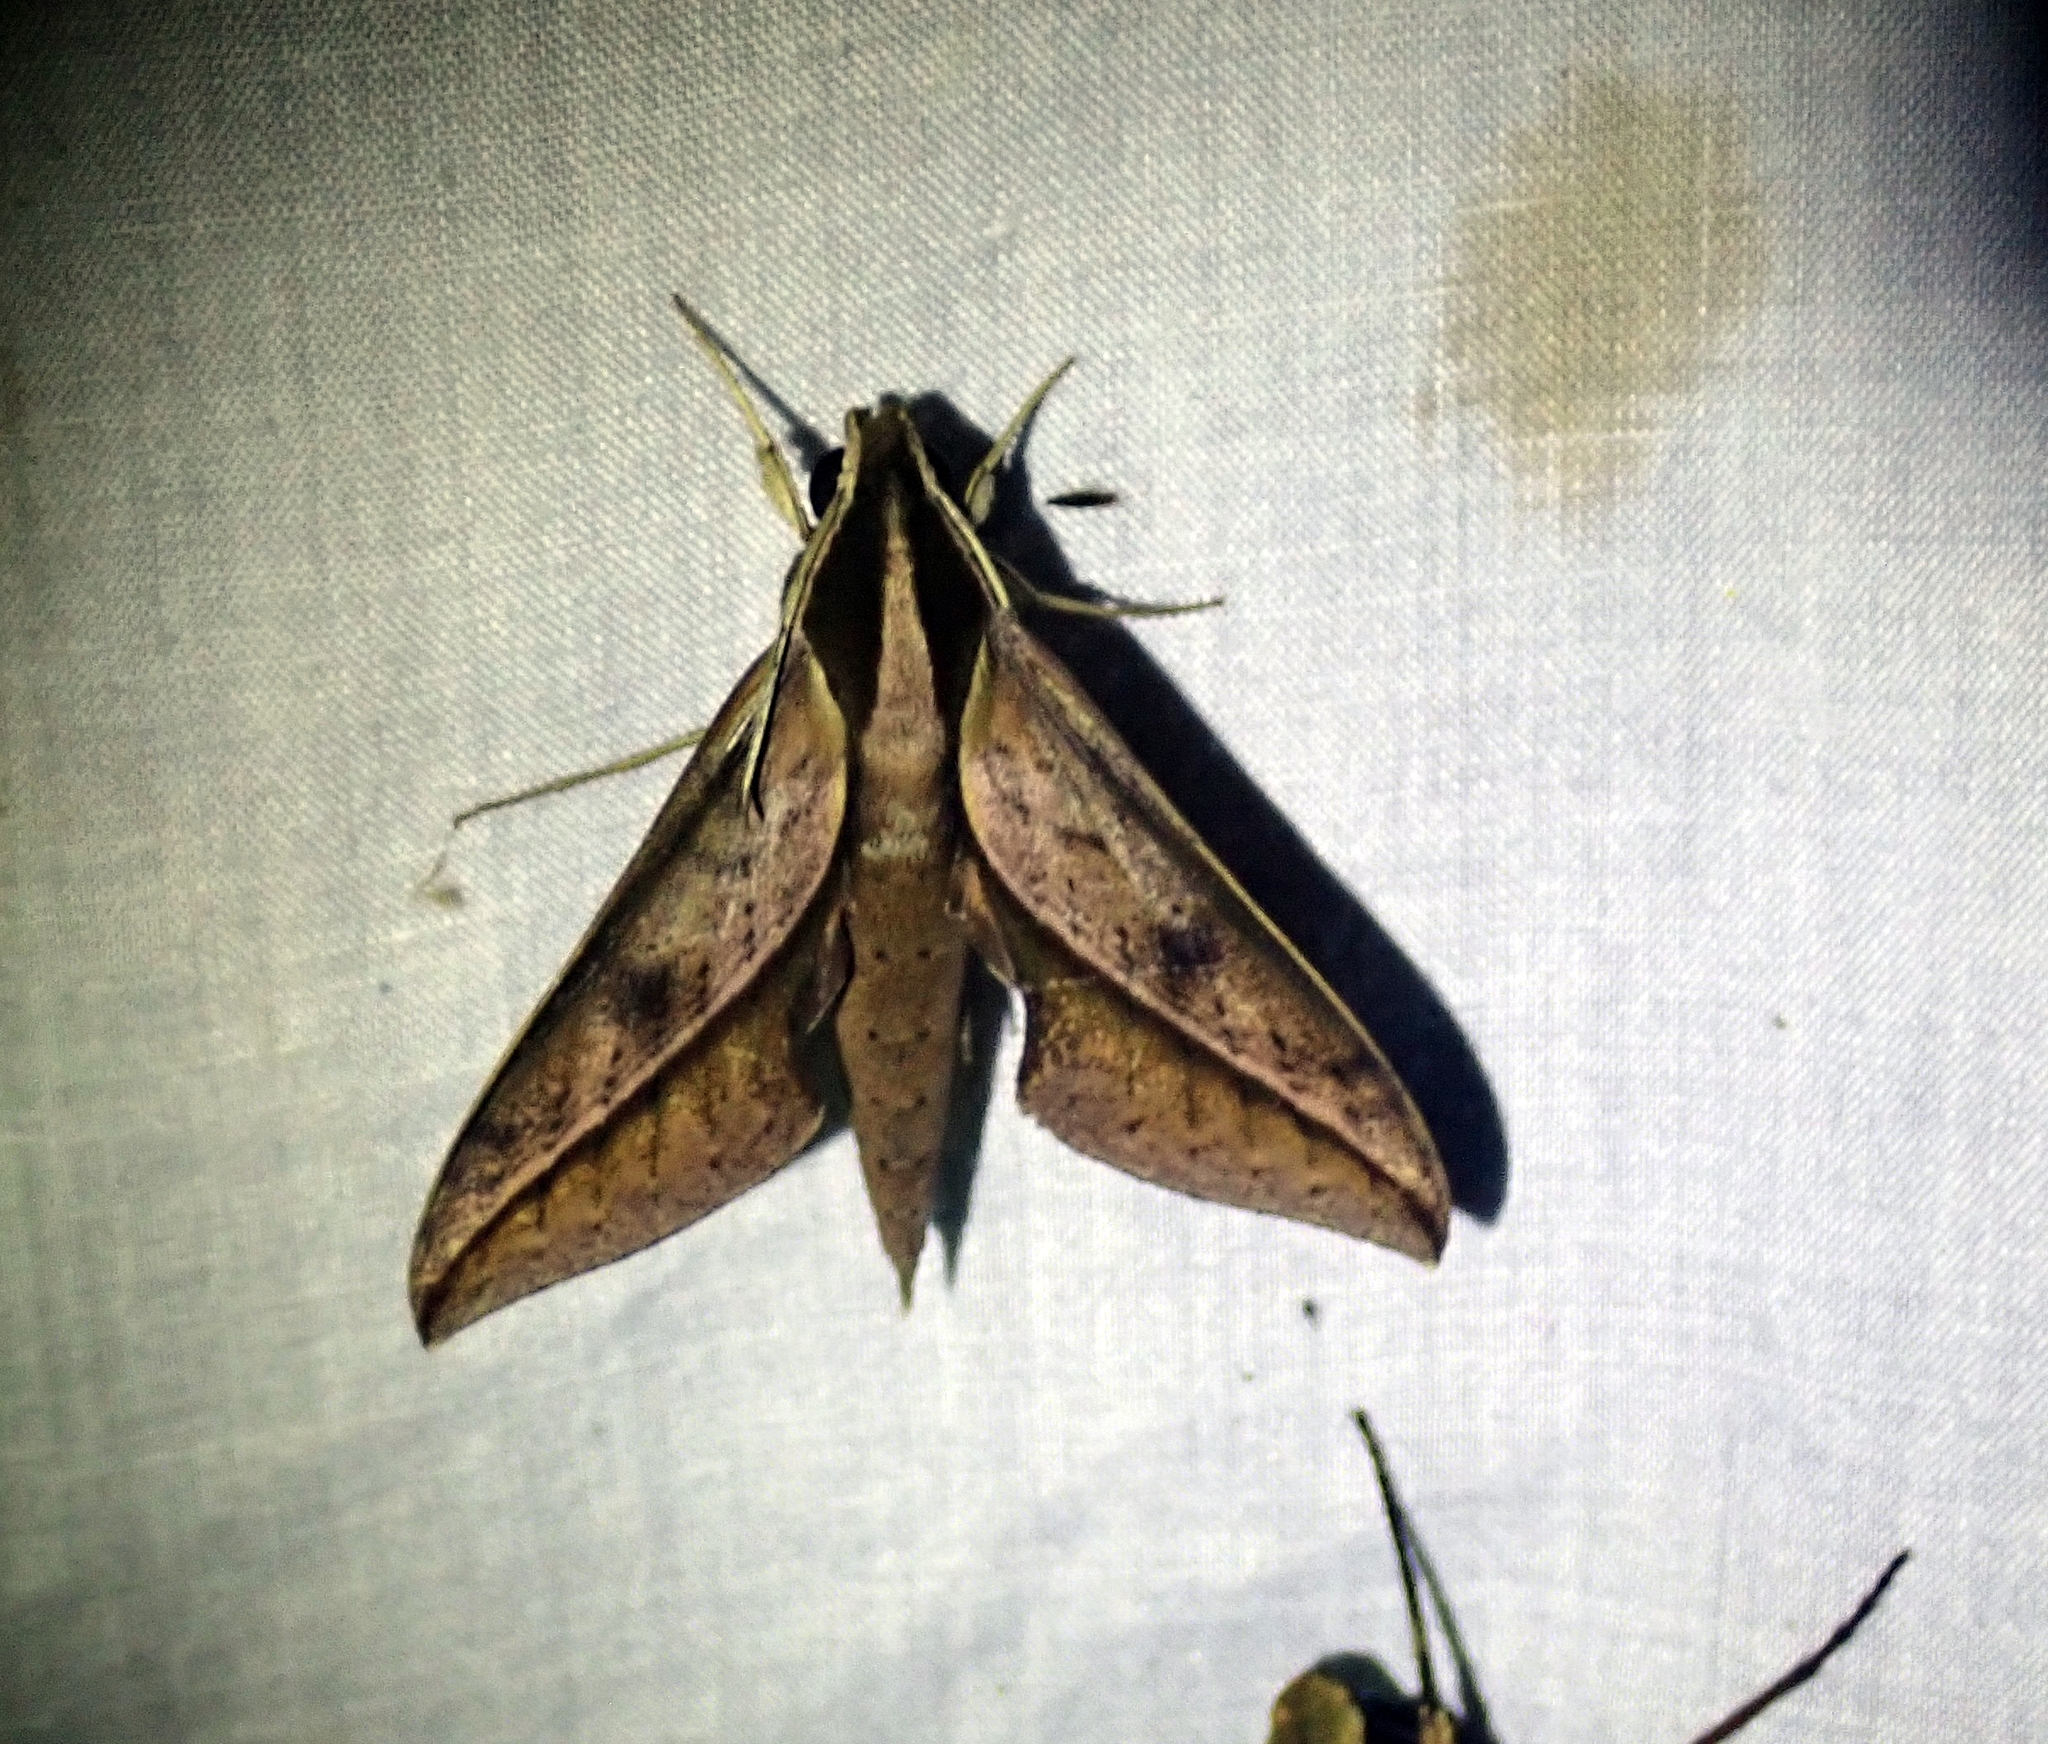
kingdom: Animalia
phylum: Arthropoda
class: Insecta
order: Lepidoptera
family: Sphingidae
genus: Xylophanes
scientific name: Xylophanes acrus
